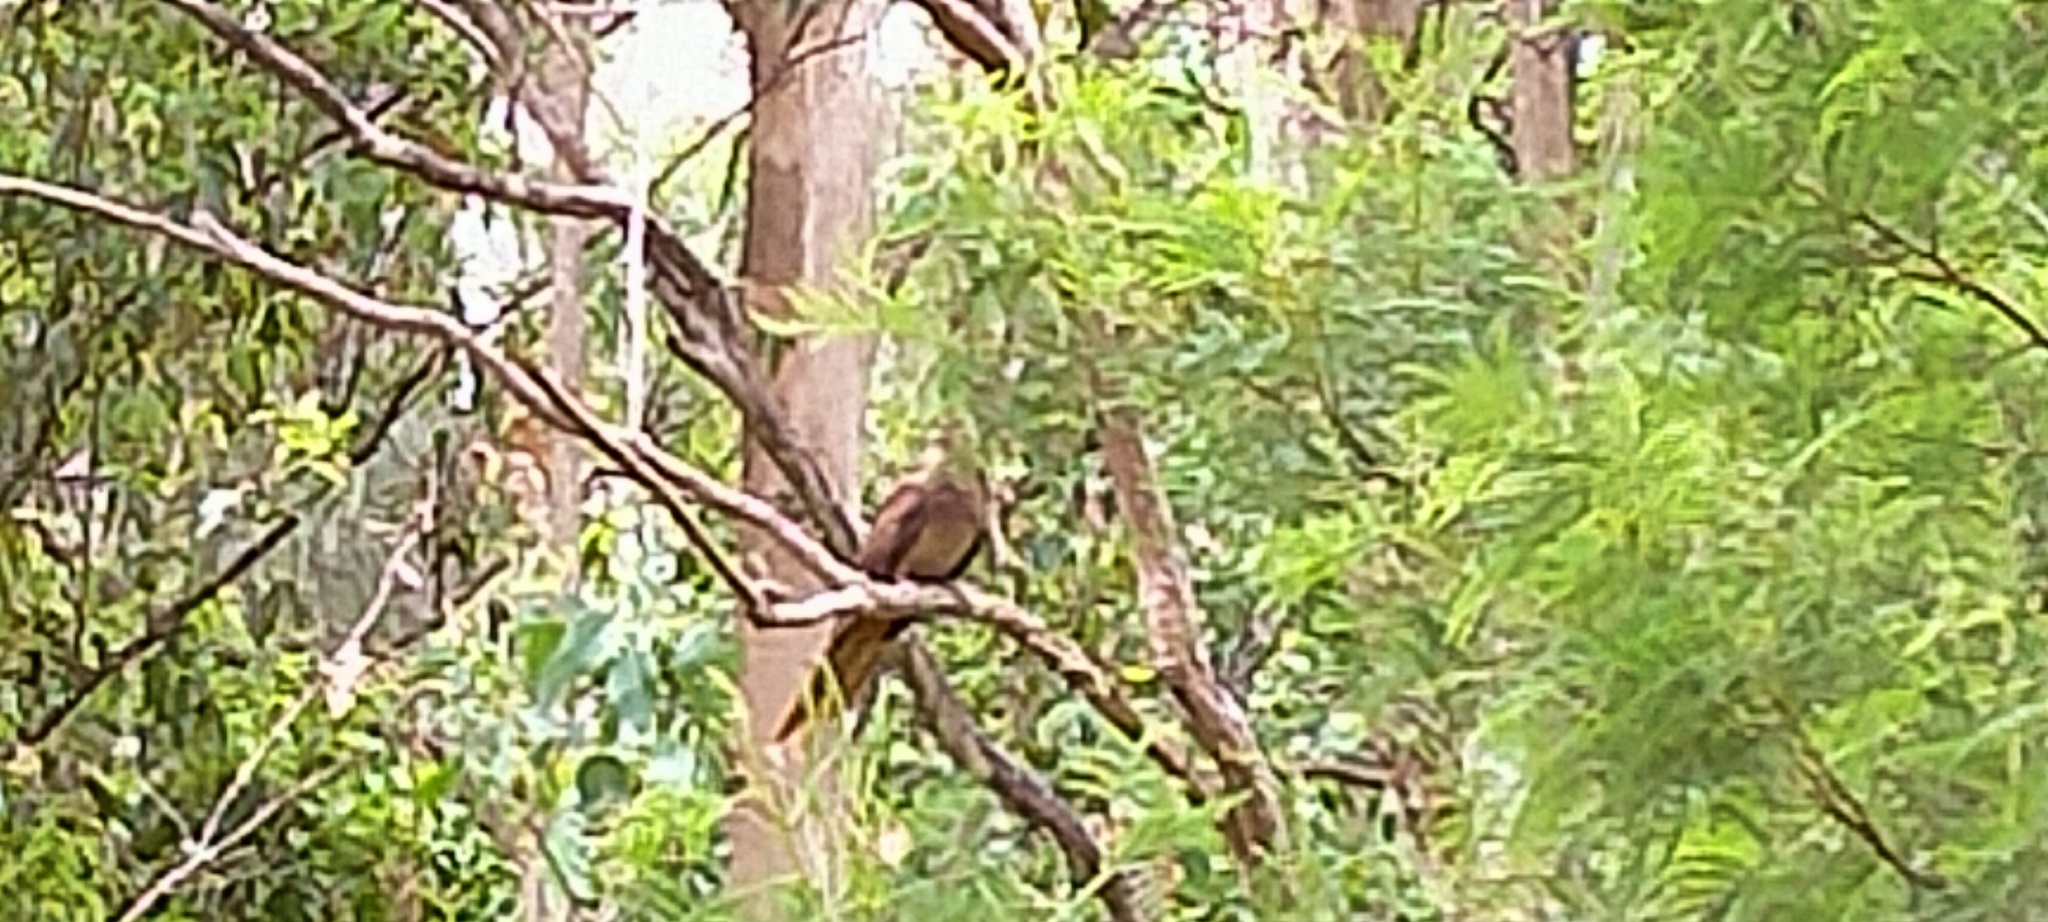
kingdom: Animalia
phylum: Chordata
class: Aves
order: Columbiformes
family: Columbidae
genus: Macropygia
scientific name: Macropygia phasianella
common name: Brown cuckoo-dove
